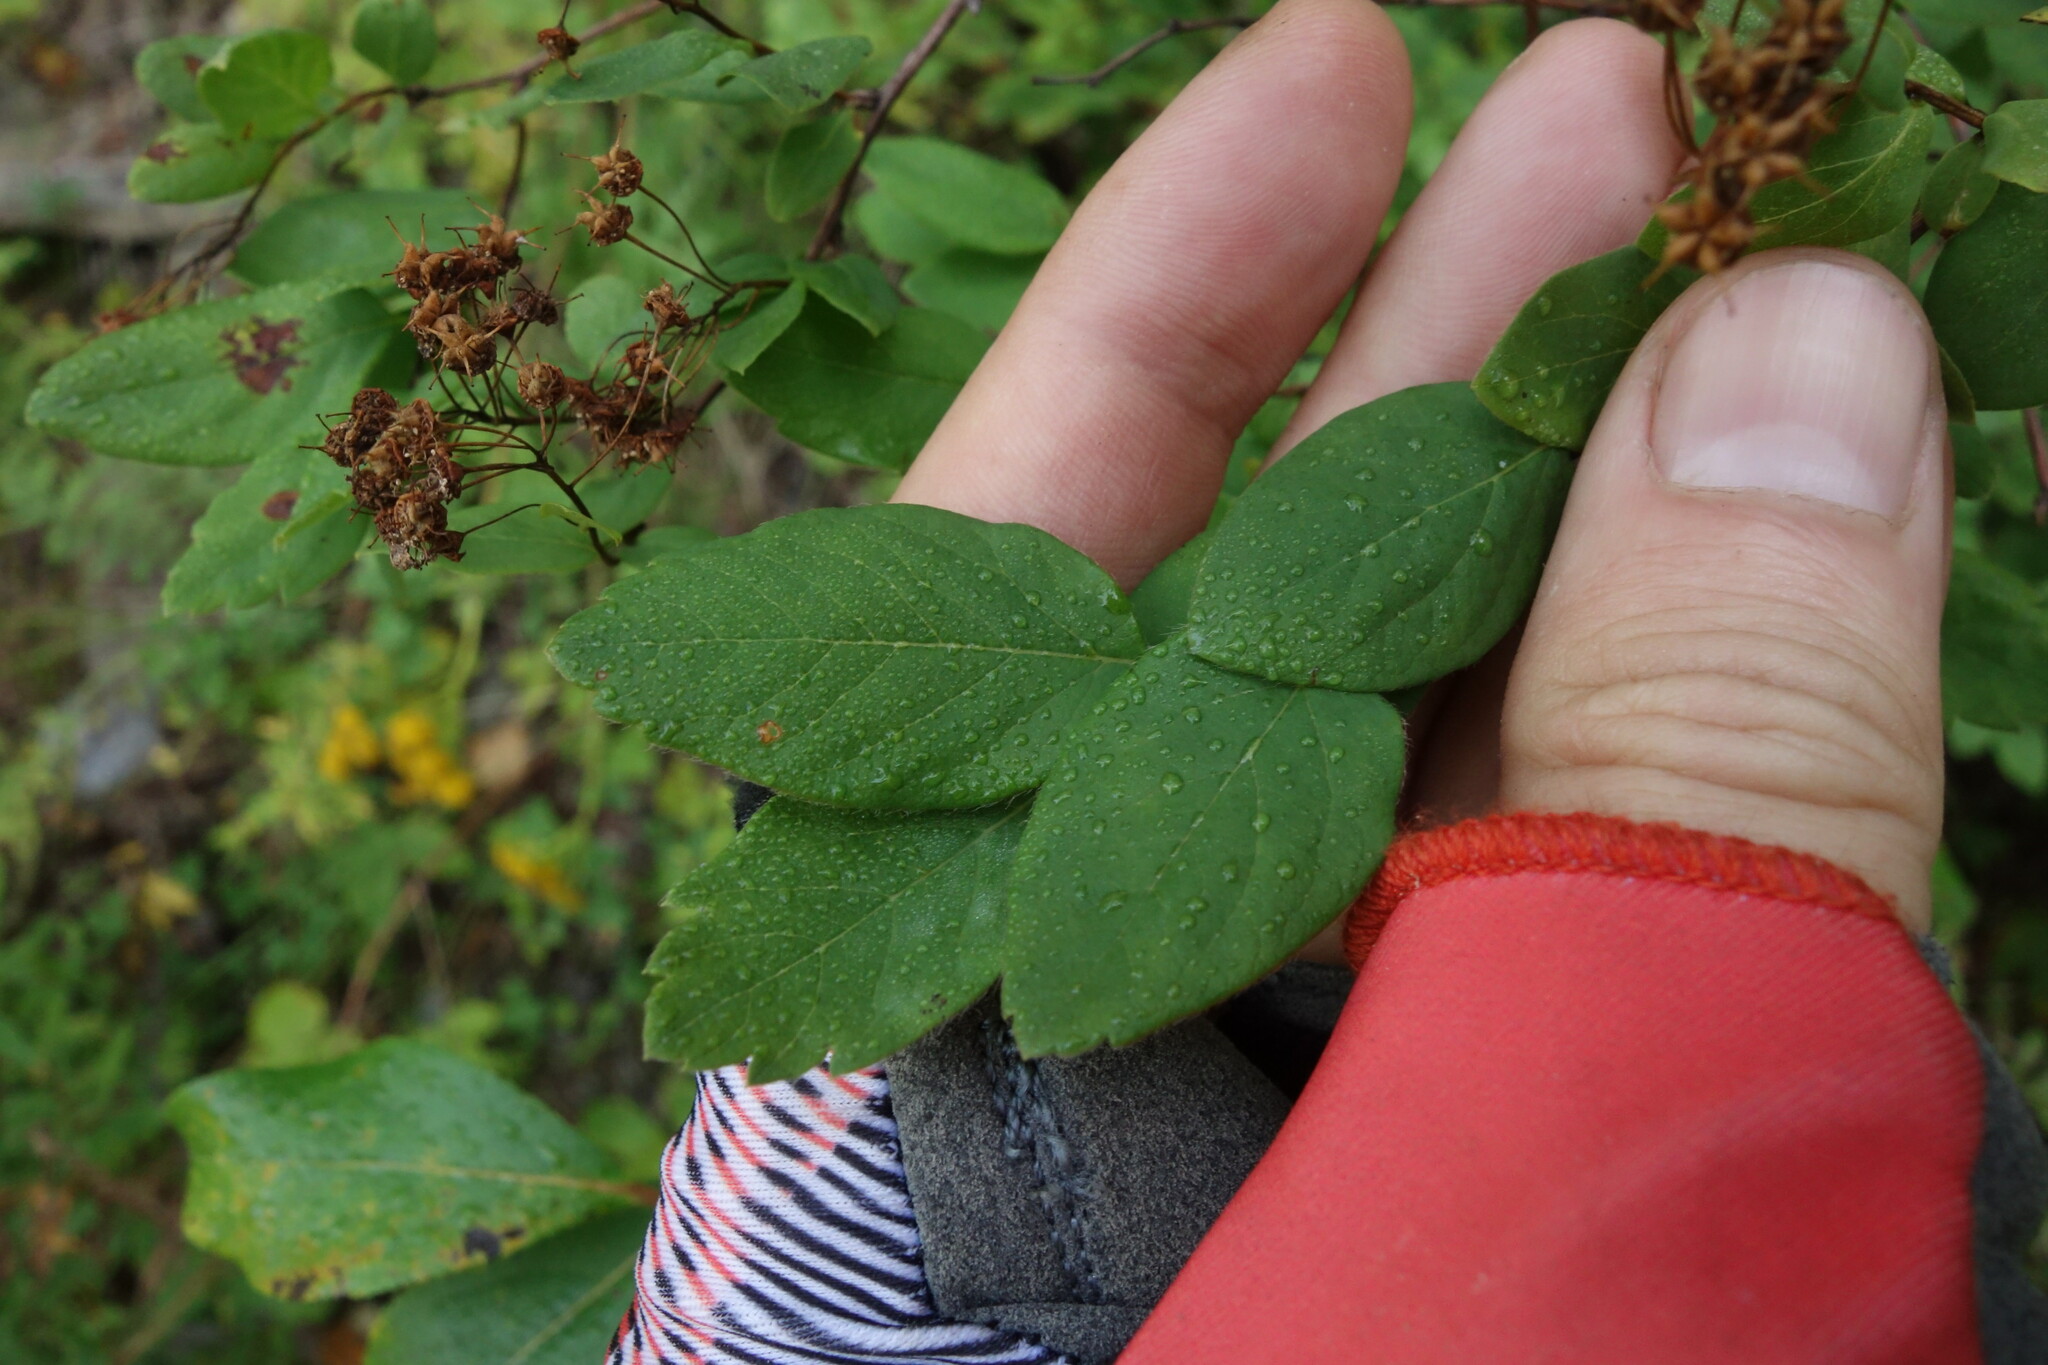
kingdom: Plantae
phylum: Tracheophyta
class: Magnoliopsida
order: Rosales
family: Rosaceae
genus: Spiraea
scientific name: Spiraea media
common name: Russian spiraea
